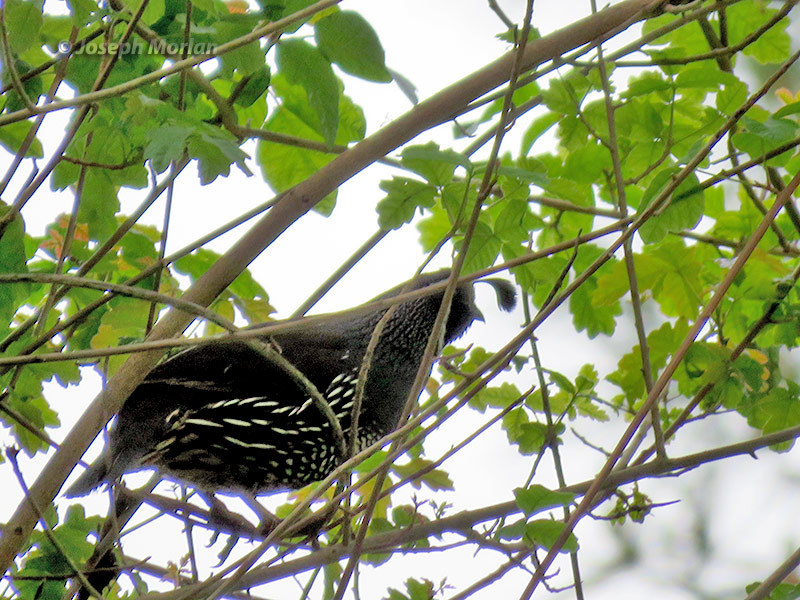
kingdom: Animalia
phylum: Chordata
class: Aves
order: Galliformes
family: Odontophoridae
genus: Callipepla
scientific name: Callipepla californica
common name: California quail
